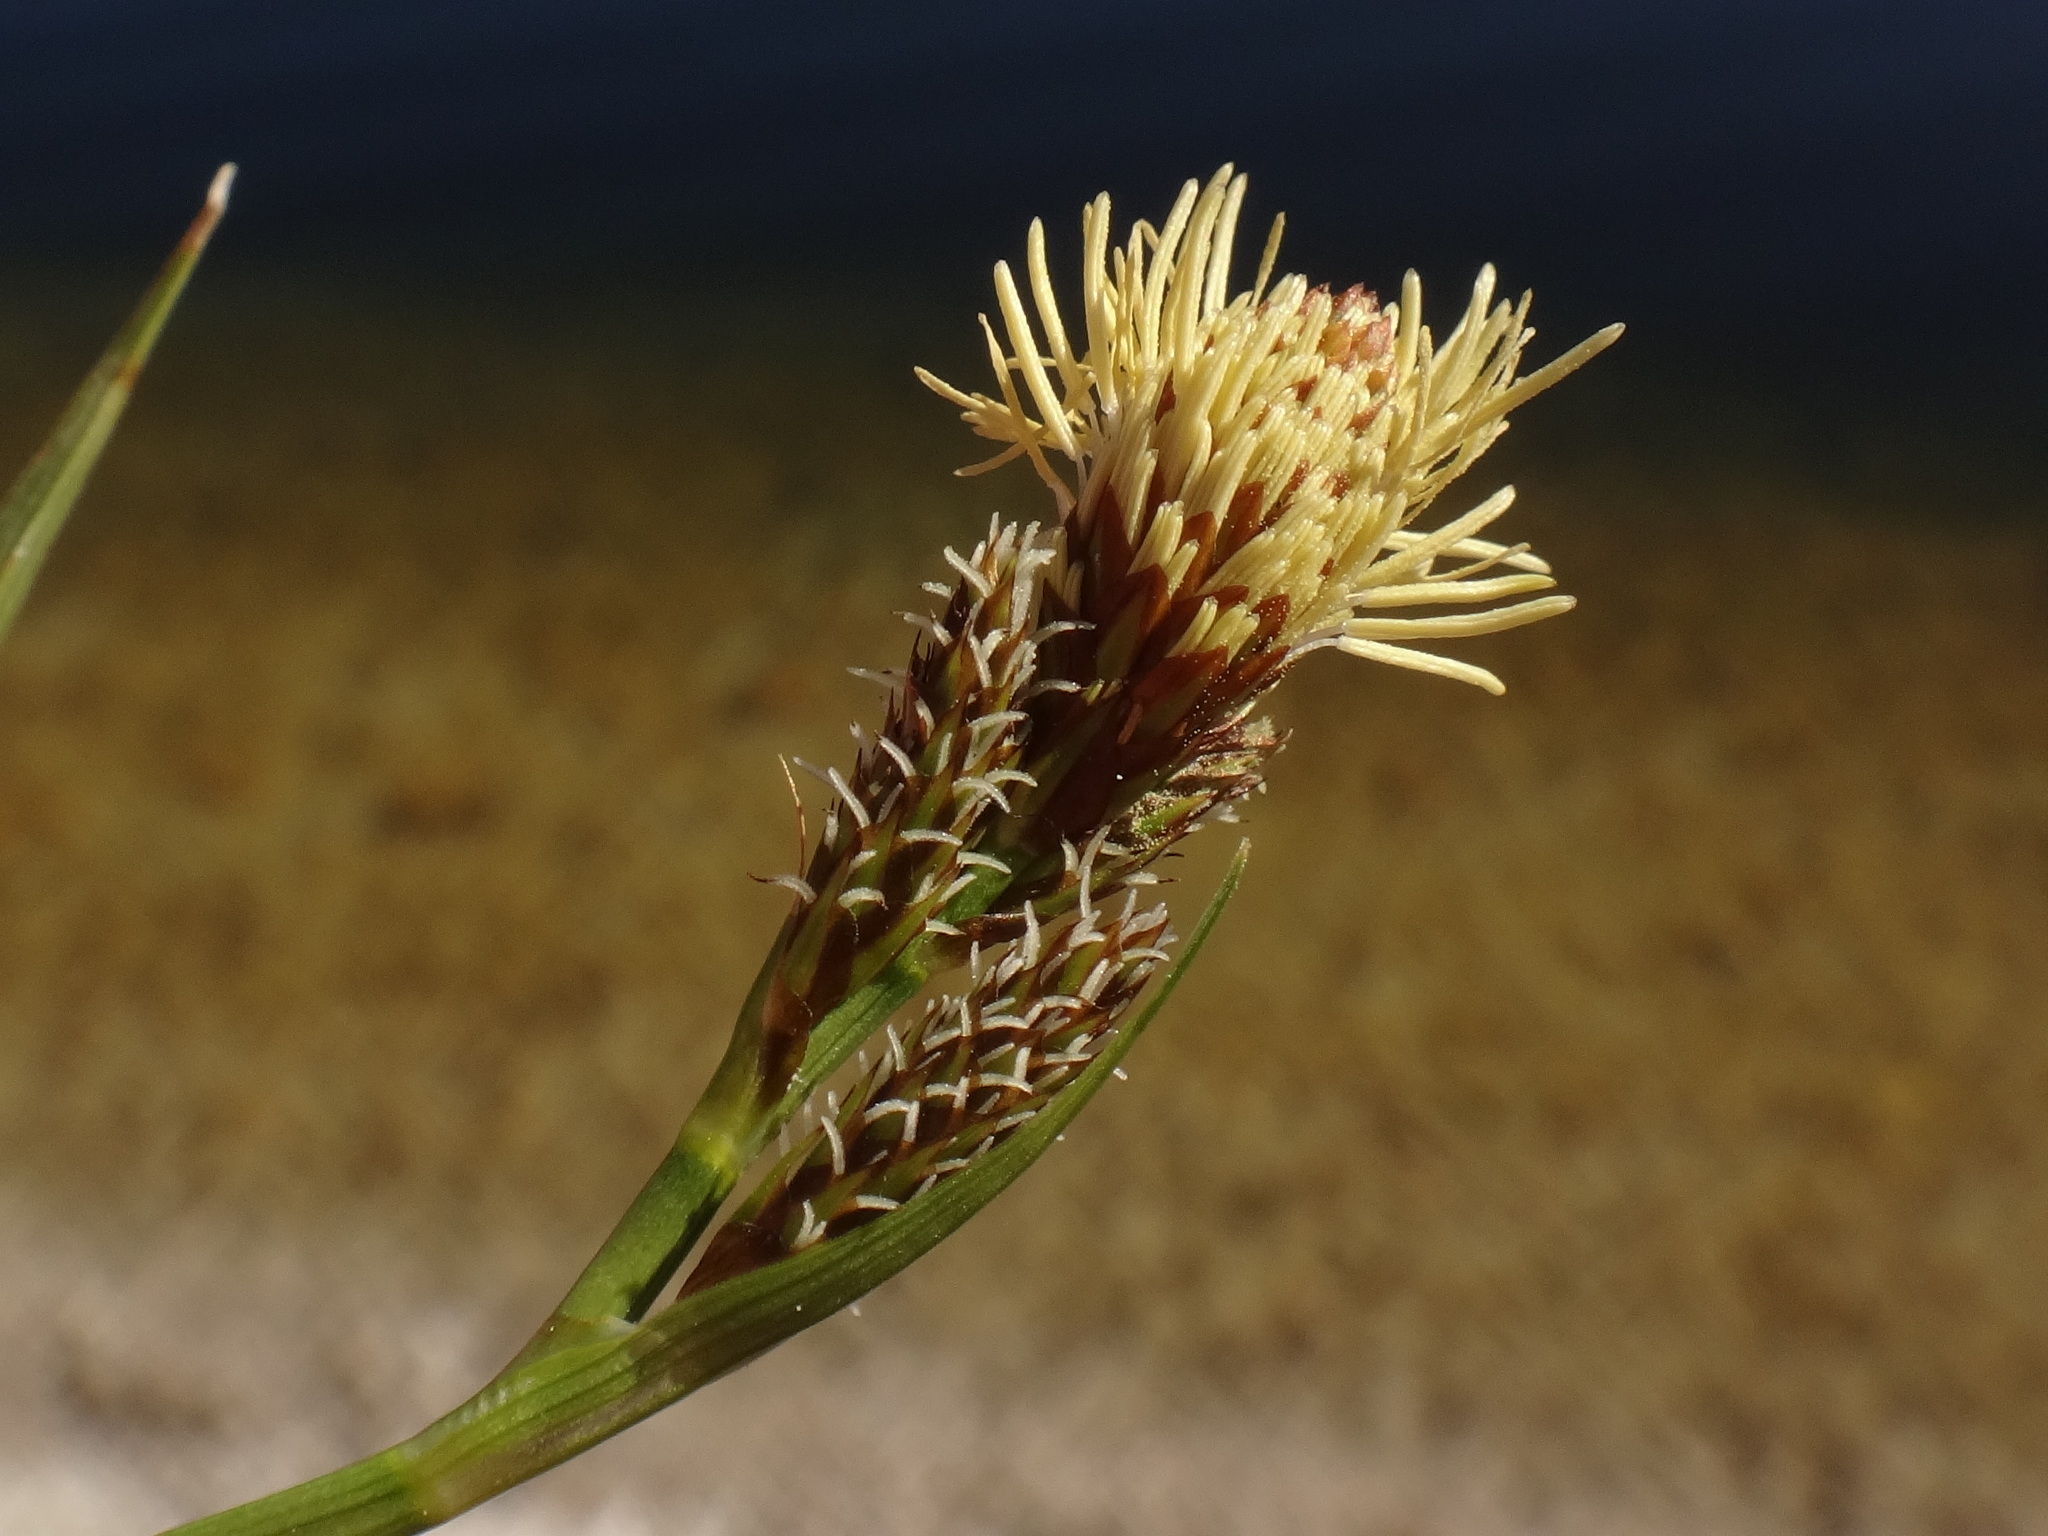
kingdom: Plantae
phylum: Tracheophyta
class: Liliopsida
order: Poales
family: Cyperaceae
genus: Carex
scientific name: Carex caryophyllea
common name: Spring sedge
